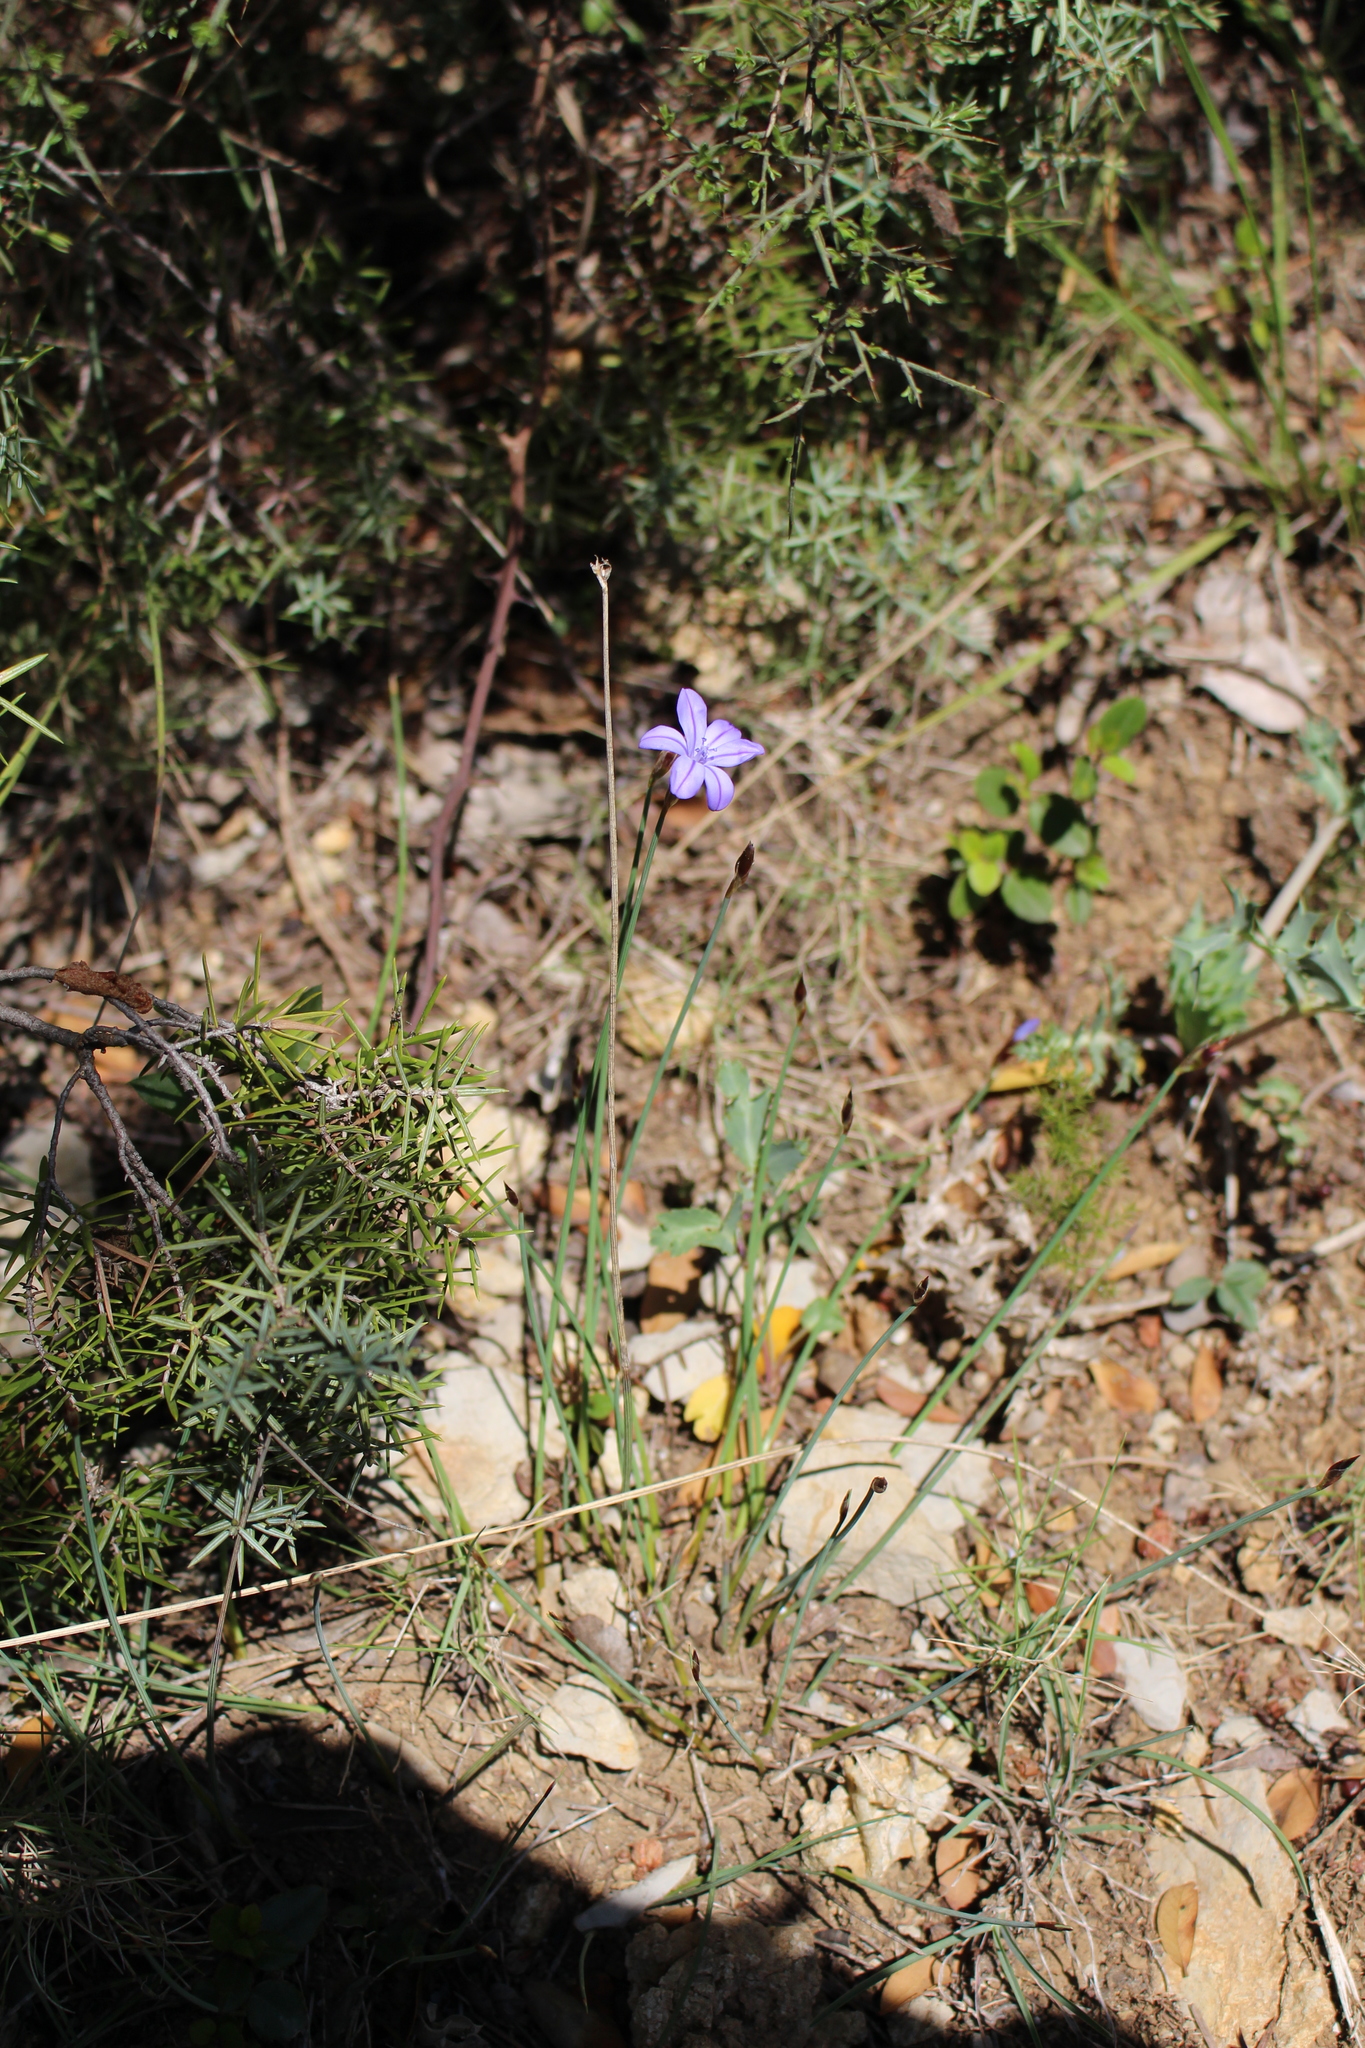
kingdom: Plantae
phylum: Tracheophyta
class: Liliopsida
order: Asparagales
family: Asparagaceae
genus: Aphyllanthes
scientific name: Aphyllanthes monspeliensis
